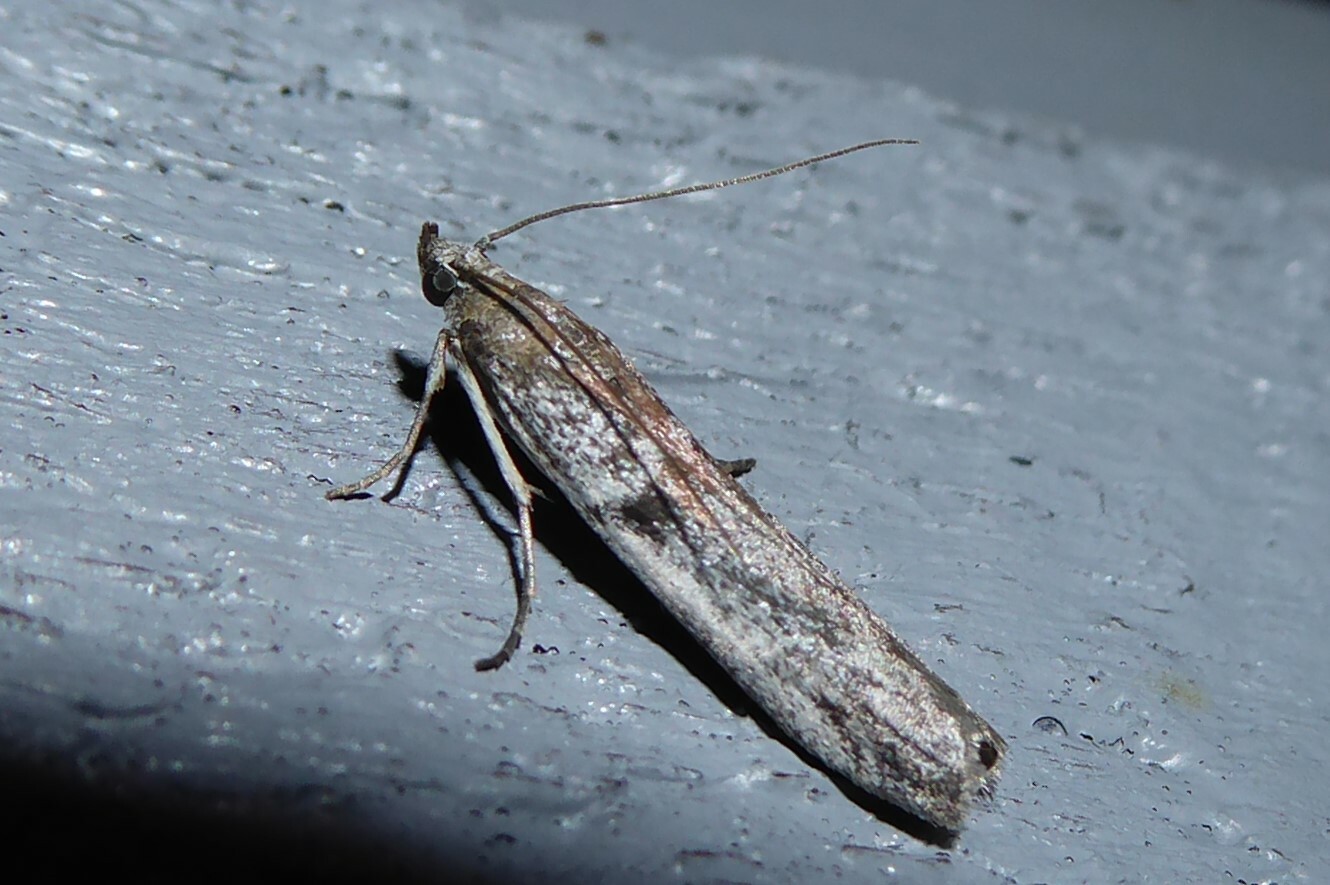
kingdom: Animalia
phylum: Arthropoda
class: Insecta
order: Lepidoptera
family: Pyralidae
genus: Patagoniodes
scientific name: Patagoniodes farinaria
